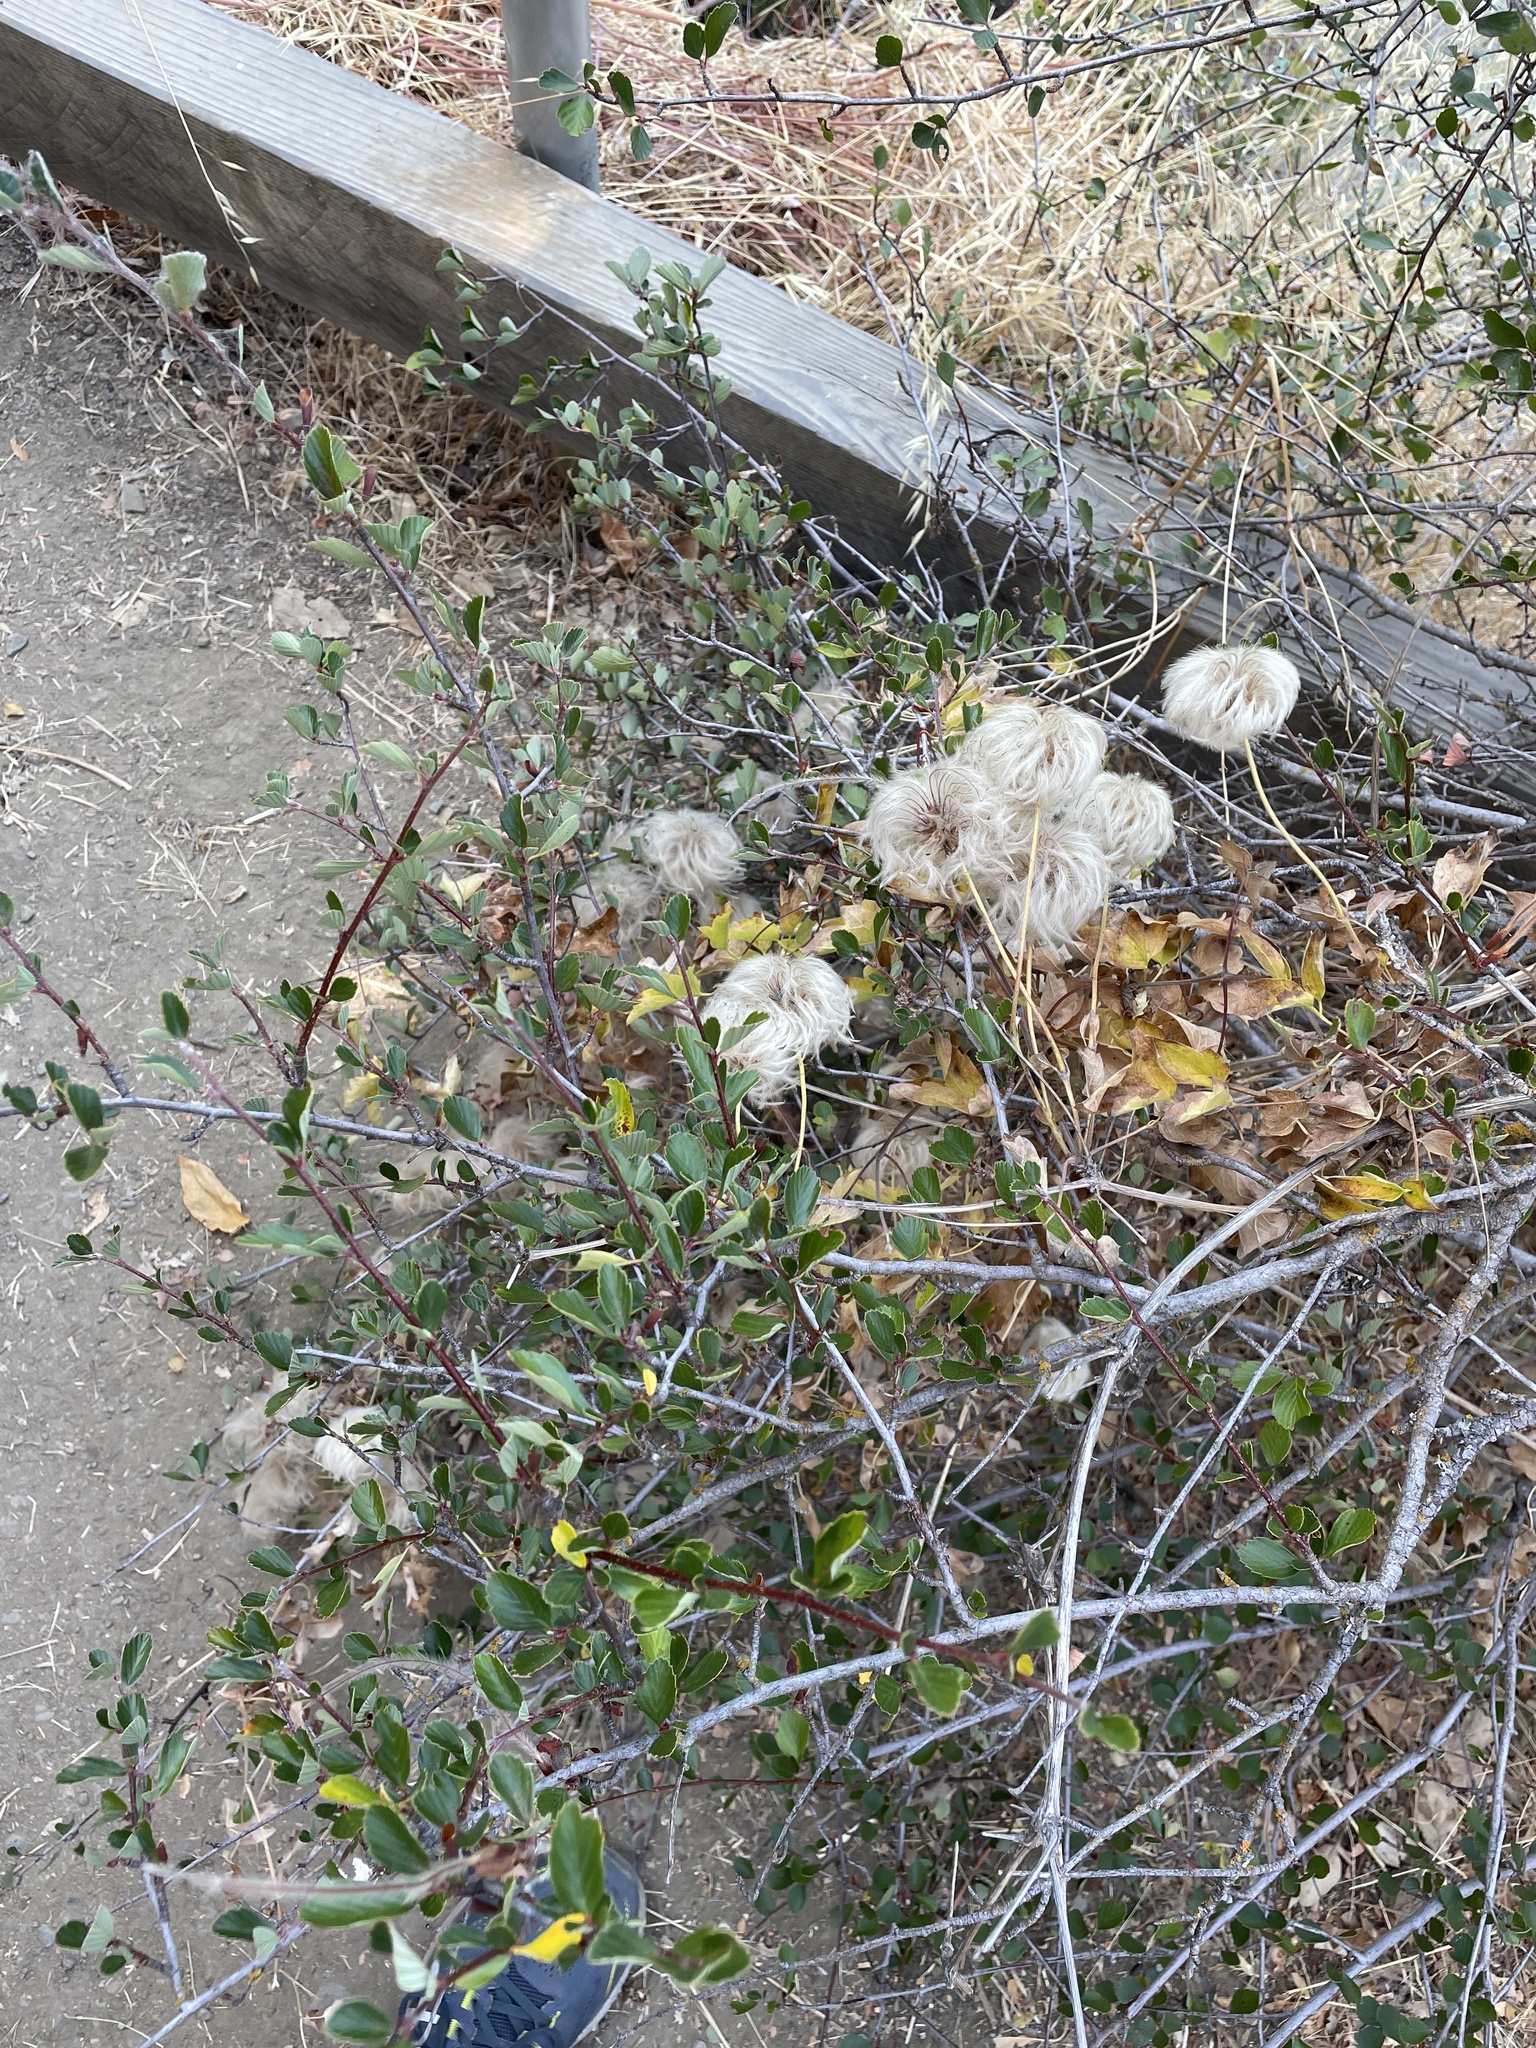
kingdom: Plantae
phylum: Tracheophyta
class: Magnoliopsida
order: Ranunculales
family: Ranunculaceae
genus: Clematis
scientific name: Clematis lasiantha
